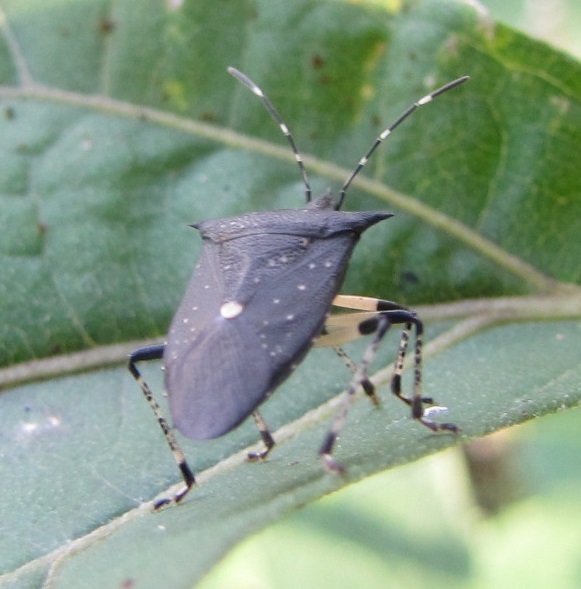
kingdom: Animalia
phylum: Arthropoda
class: Insecta
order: Hemiptera
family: Pentatomidae
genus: Proxys
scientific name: Proxys punctulatus
